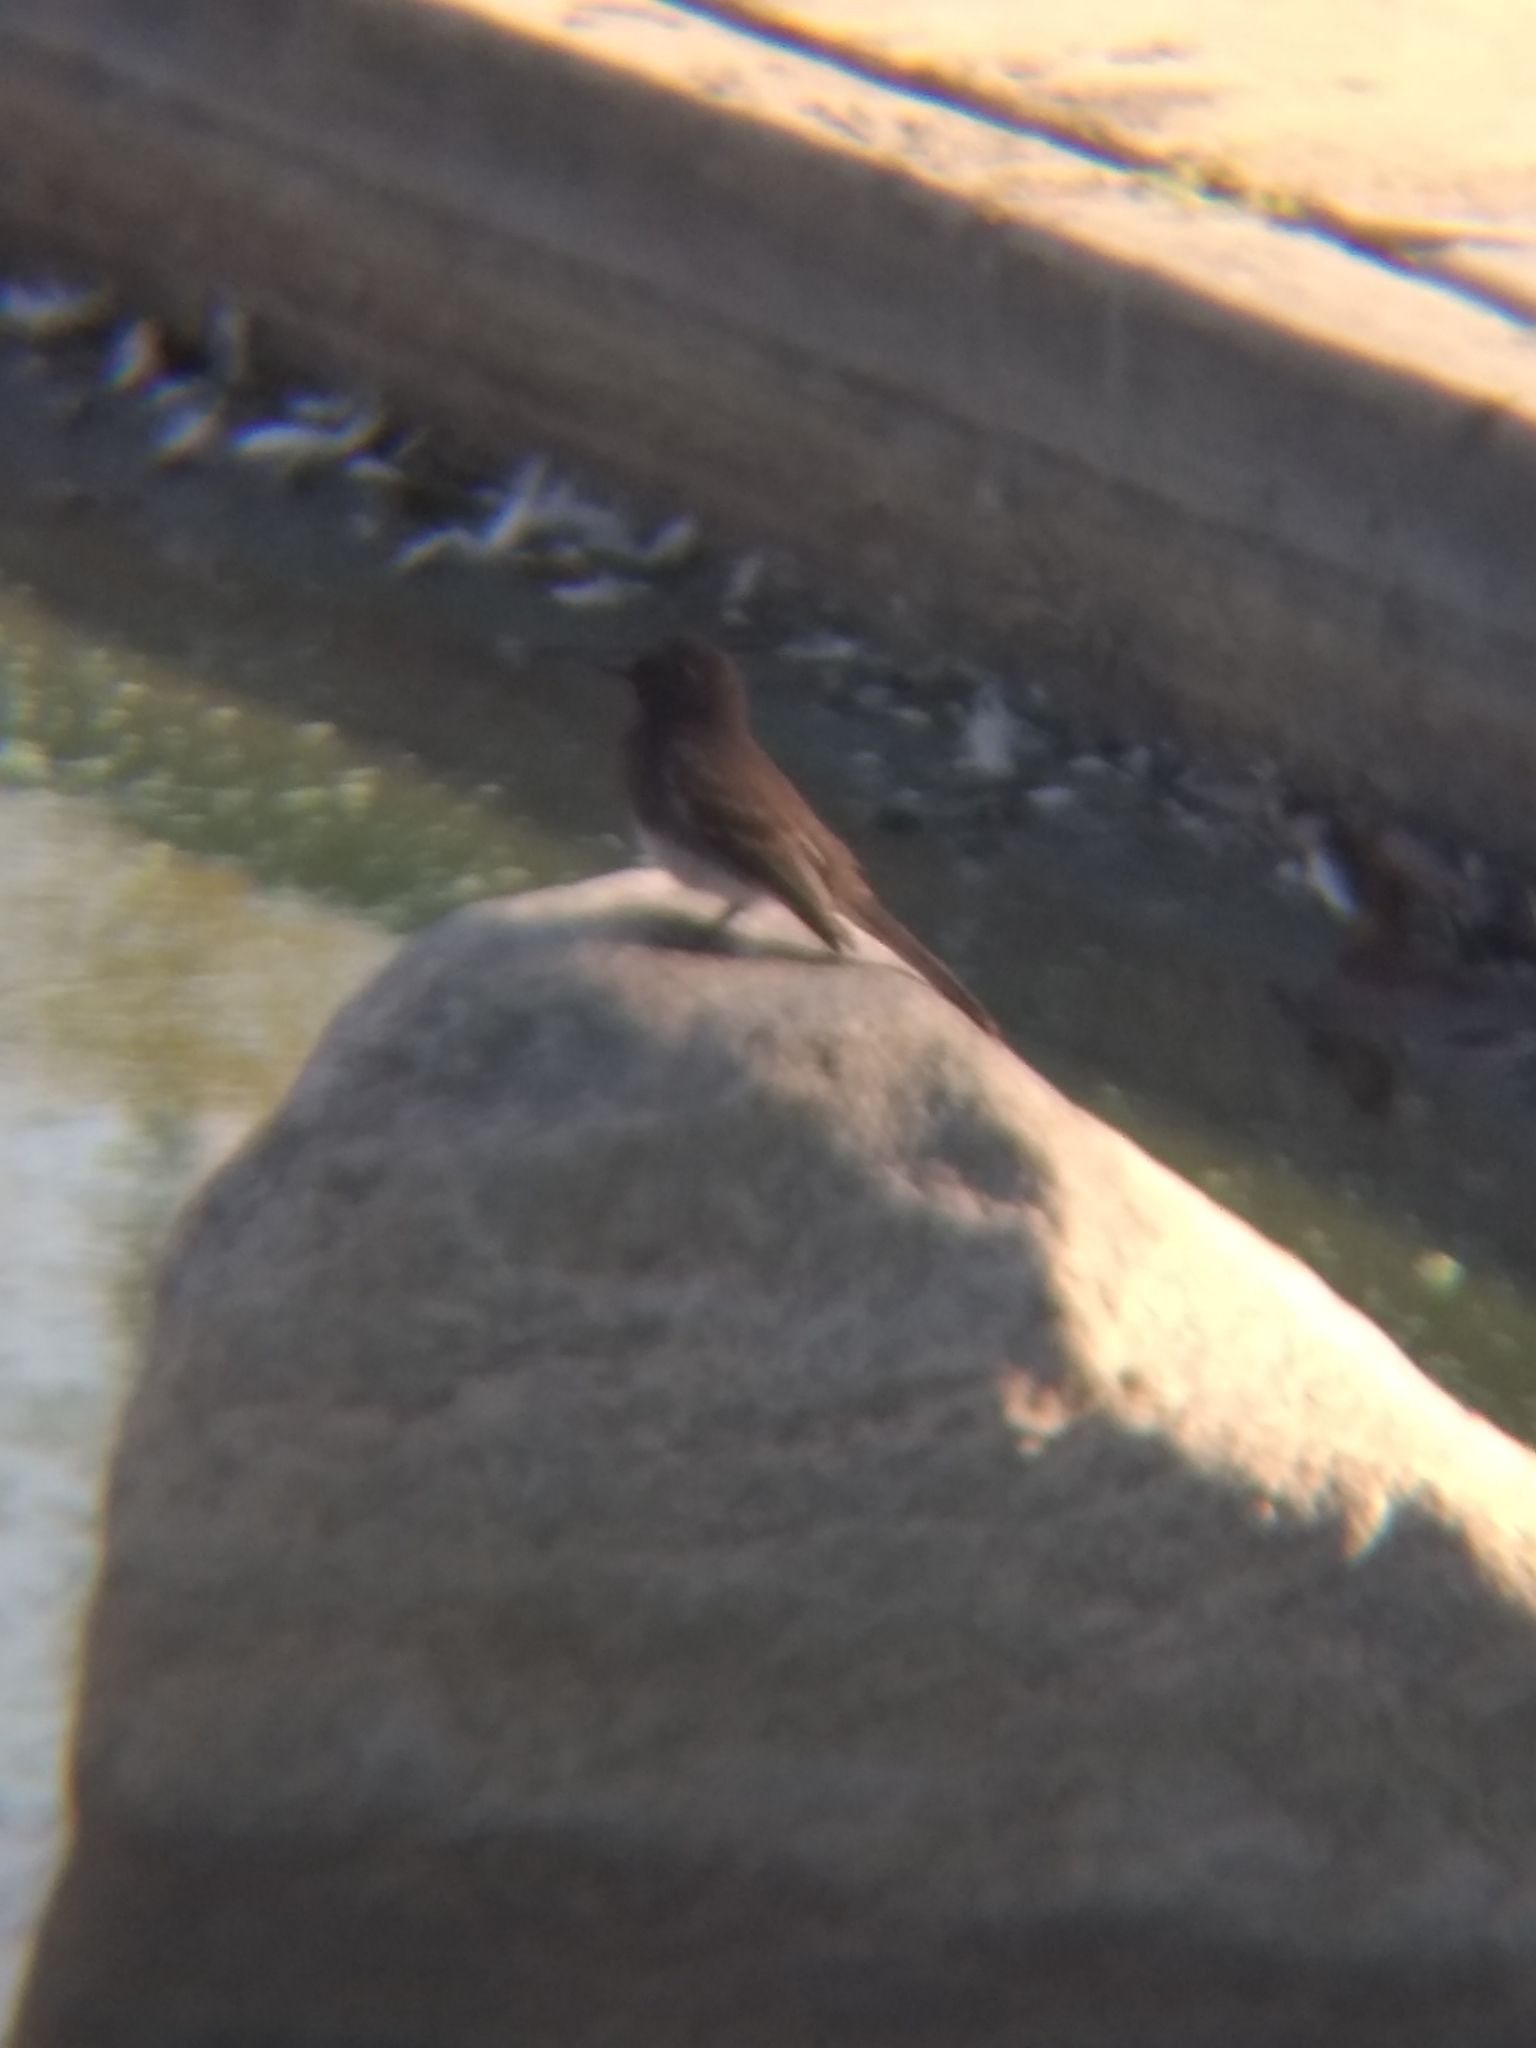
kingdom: Animalia
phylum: Chordata
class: Aves
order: Passeriformes
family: Tyrannidae
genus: Sayornis
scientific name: Sayornis nigricans
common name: Black phoebe
